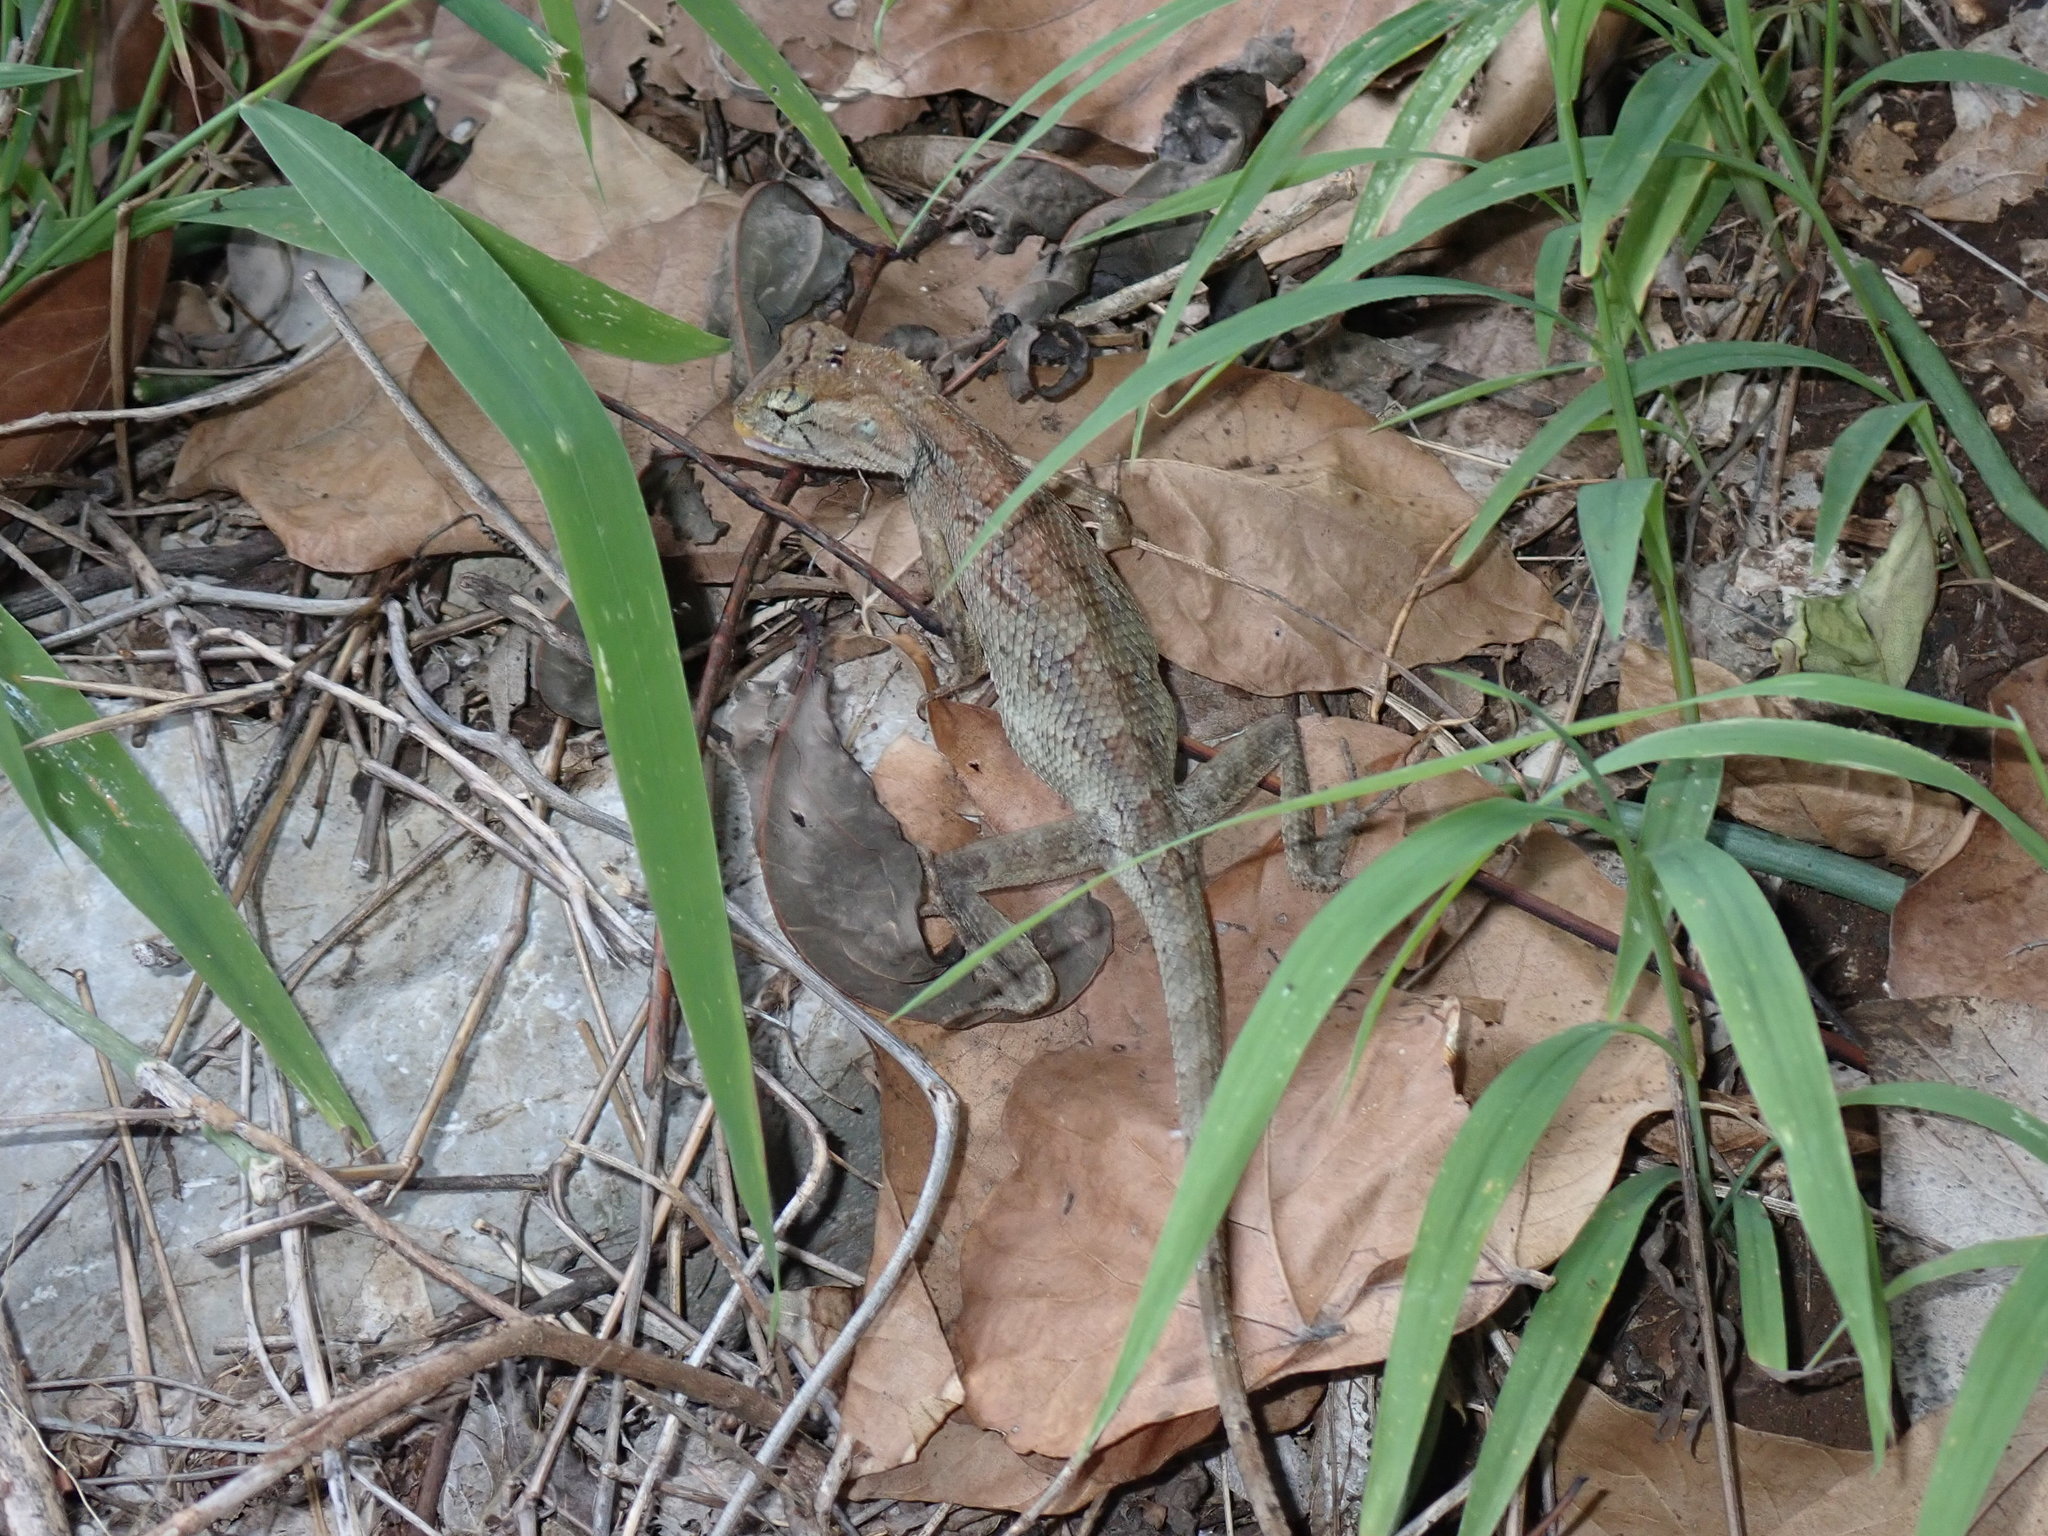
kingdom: Animalia
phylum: Chordata
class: Squamata
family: Agamidae
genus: Calotes
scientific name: Calotes versicolor
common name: Oriental garden lizard
